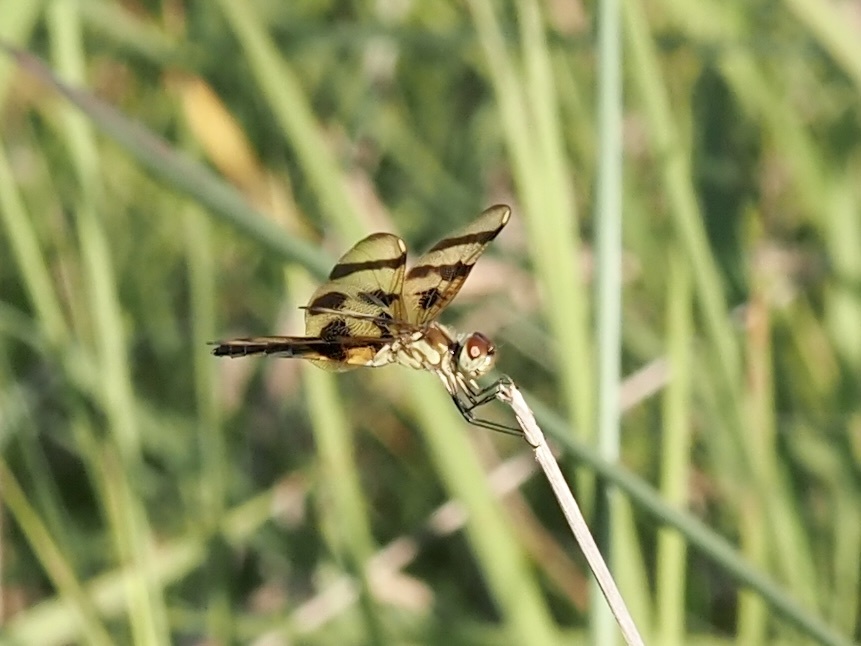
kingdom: Animalia
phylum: Arthropoda
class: Insecta
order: Odonata
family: Libellulidae
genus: Celithemis
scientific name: Celithemis eponina
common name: Halloween pennant
